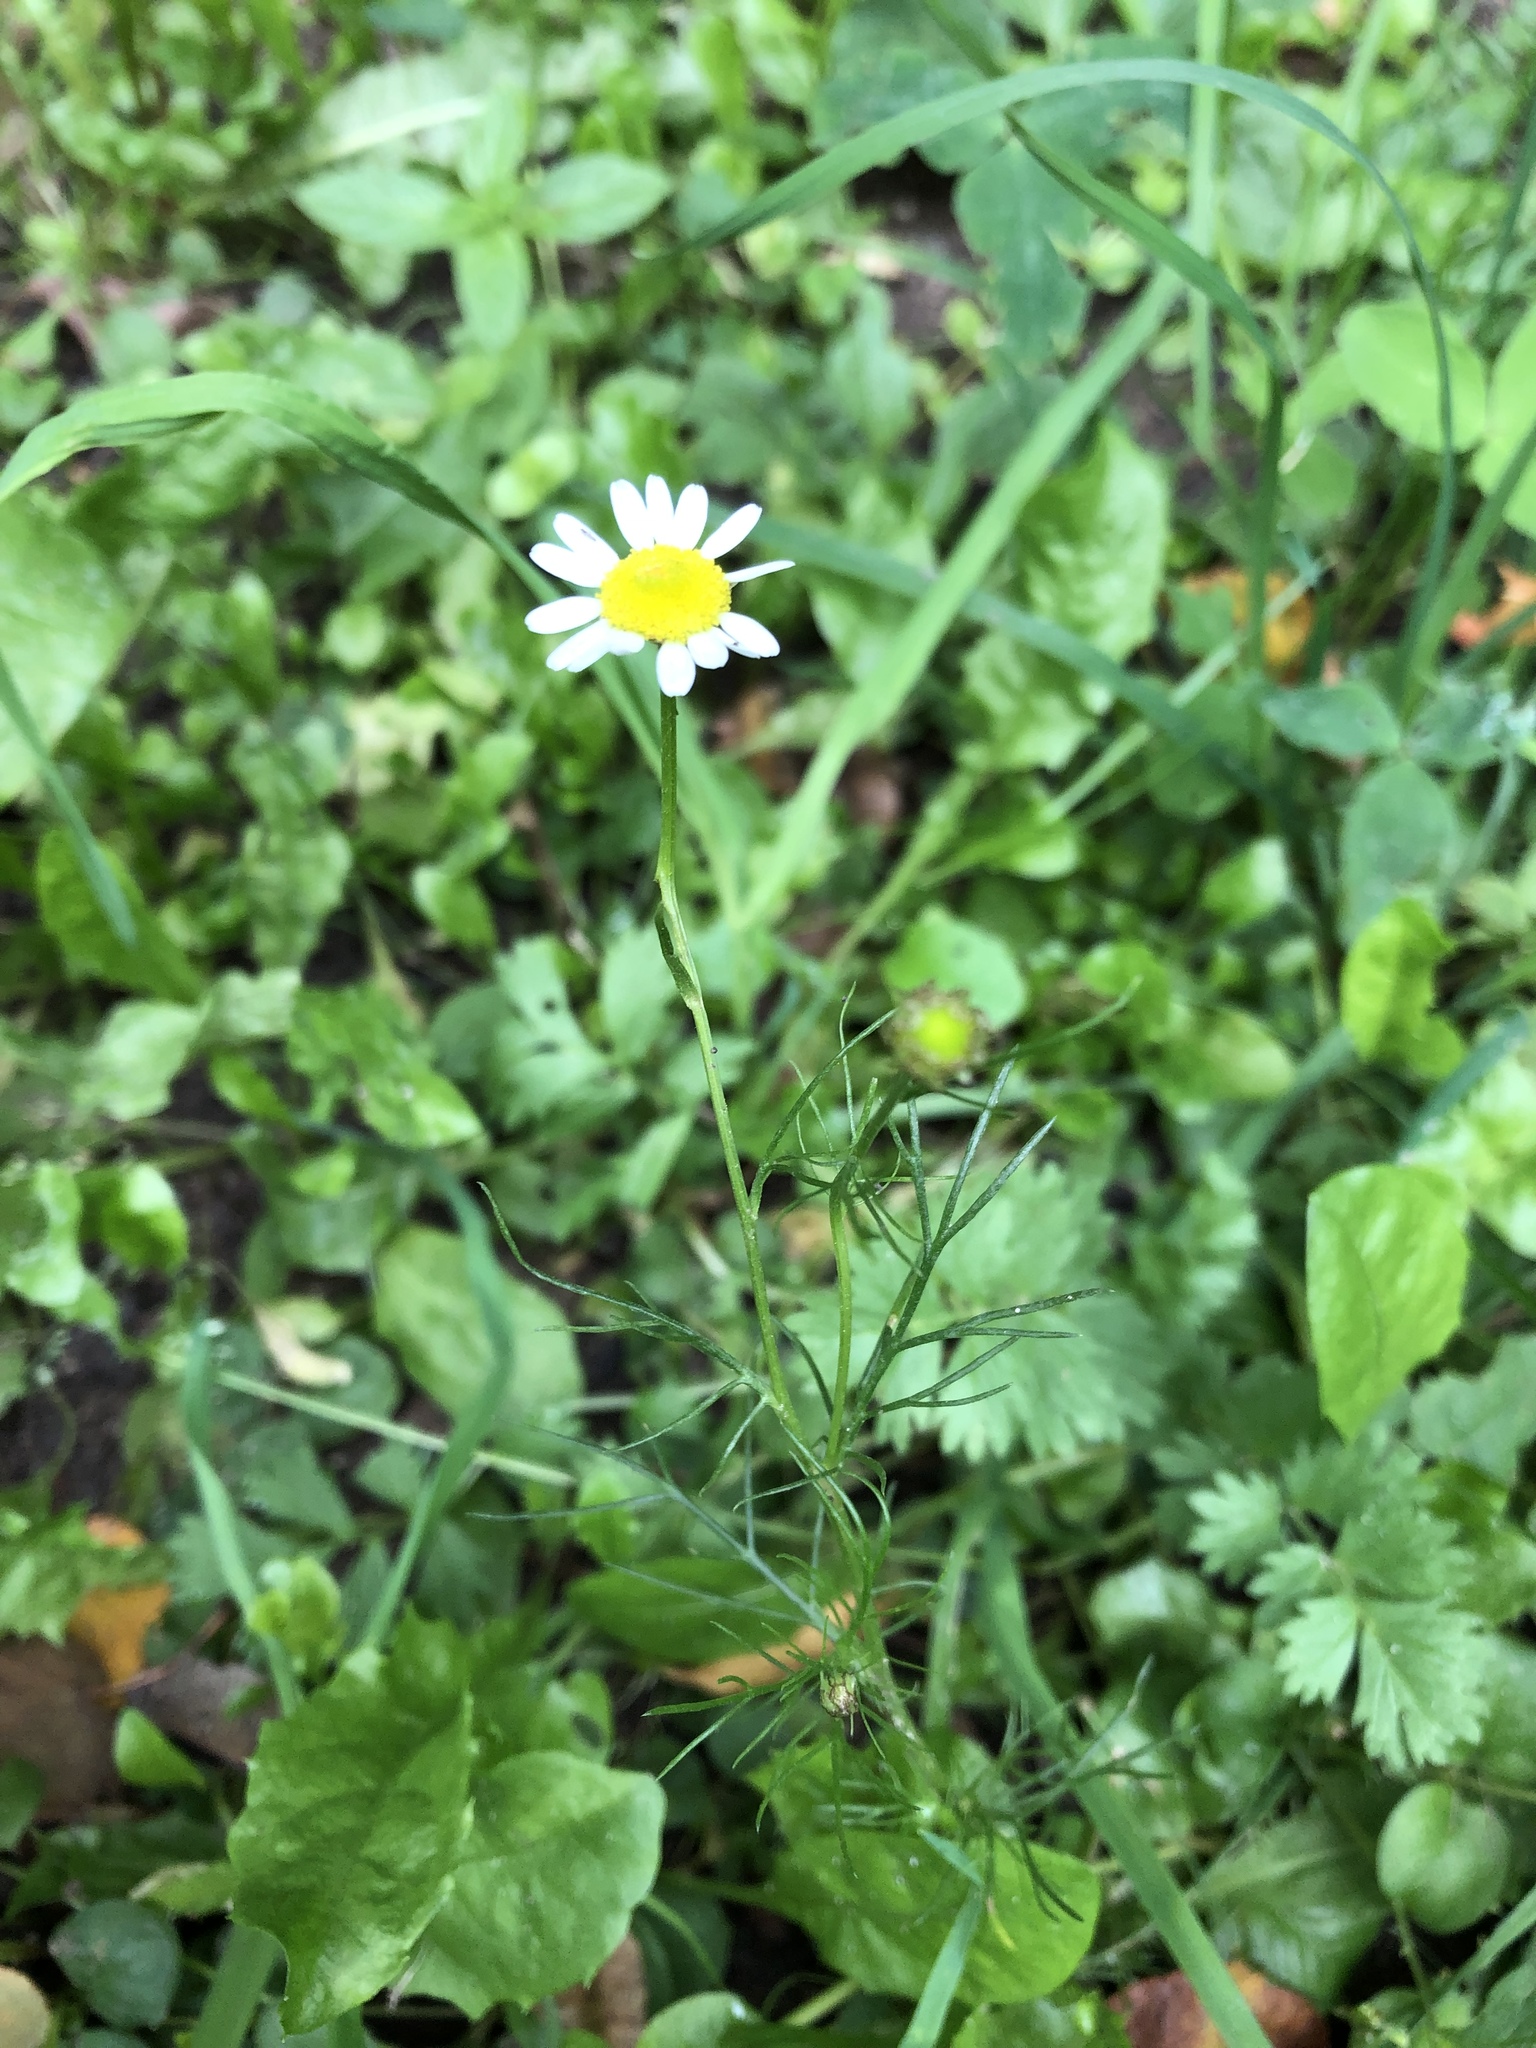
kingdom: Plantae
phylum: Tracheophyta
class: Magnoliopsida
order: Asterales
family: Asteraceae
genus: Tripleurospermum
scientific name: Tripleurospermum inodorum
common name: Scentless mayweed
